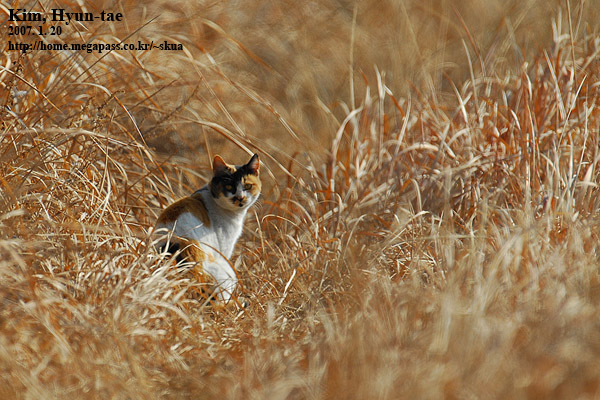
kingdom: Animalia
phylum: Chordata
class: Mammalia
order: Carnivora
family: Felidae
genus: Felis
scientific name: Felis catus
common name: Domestic cat
